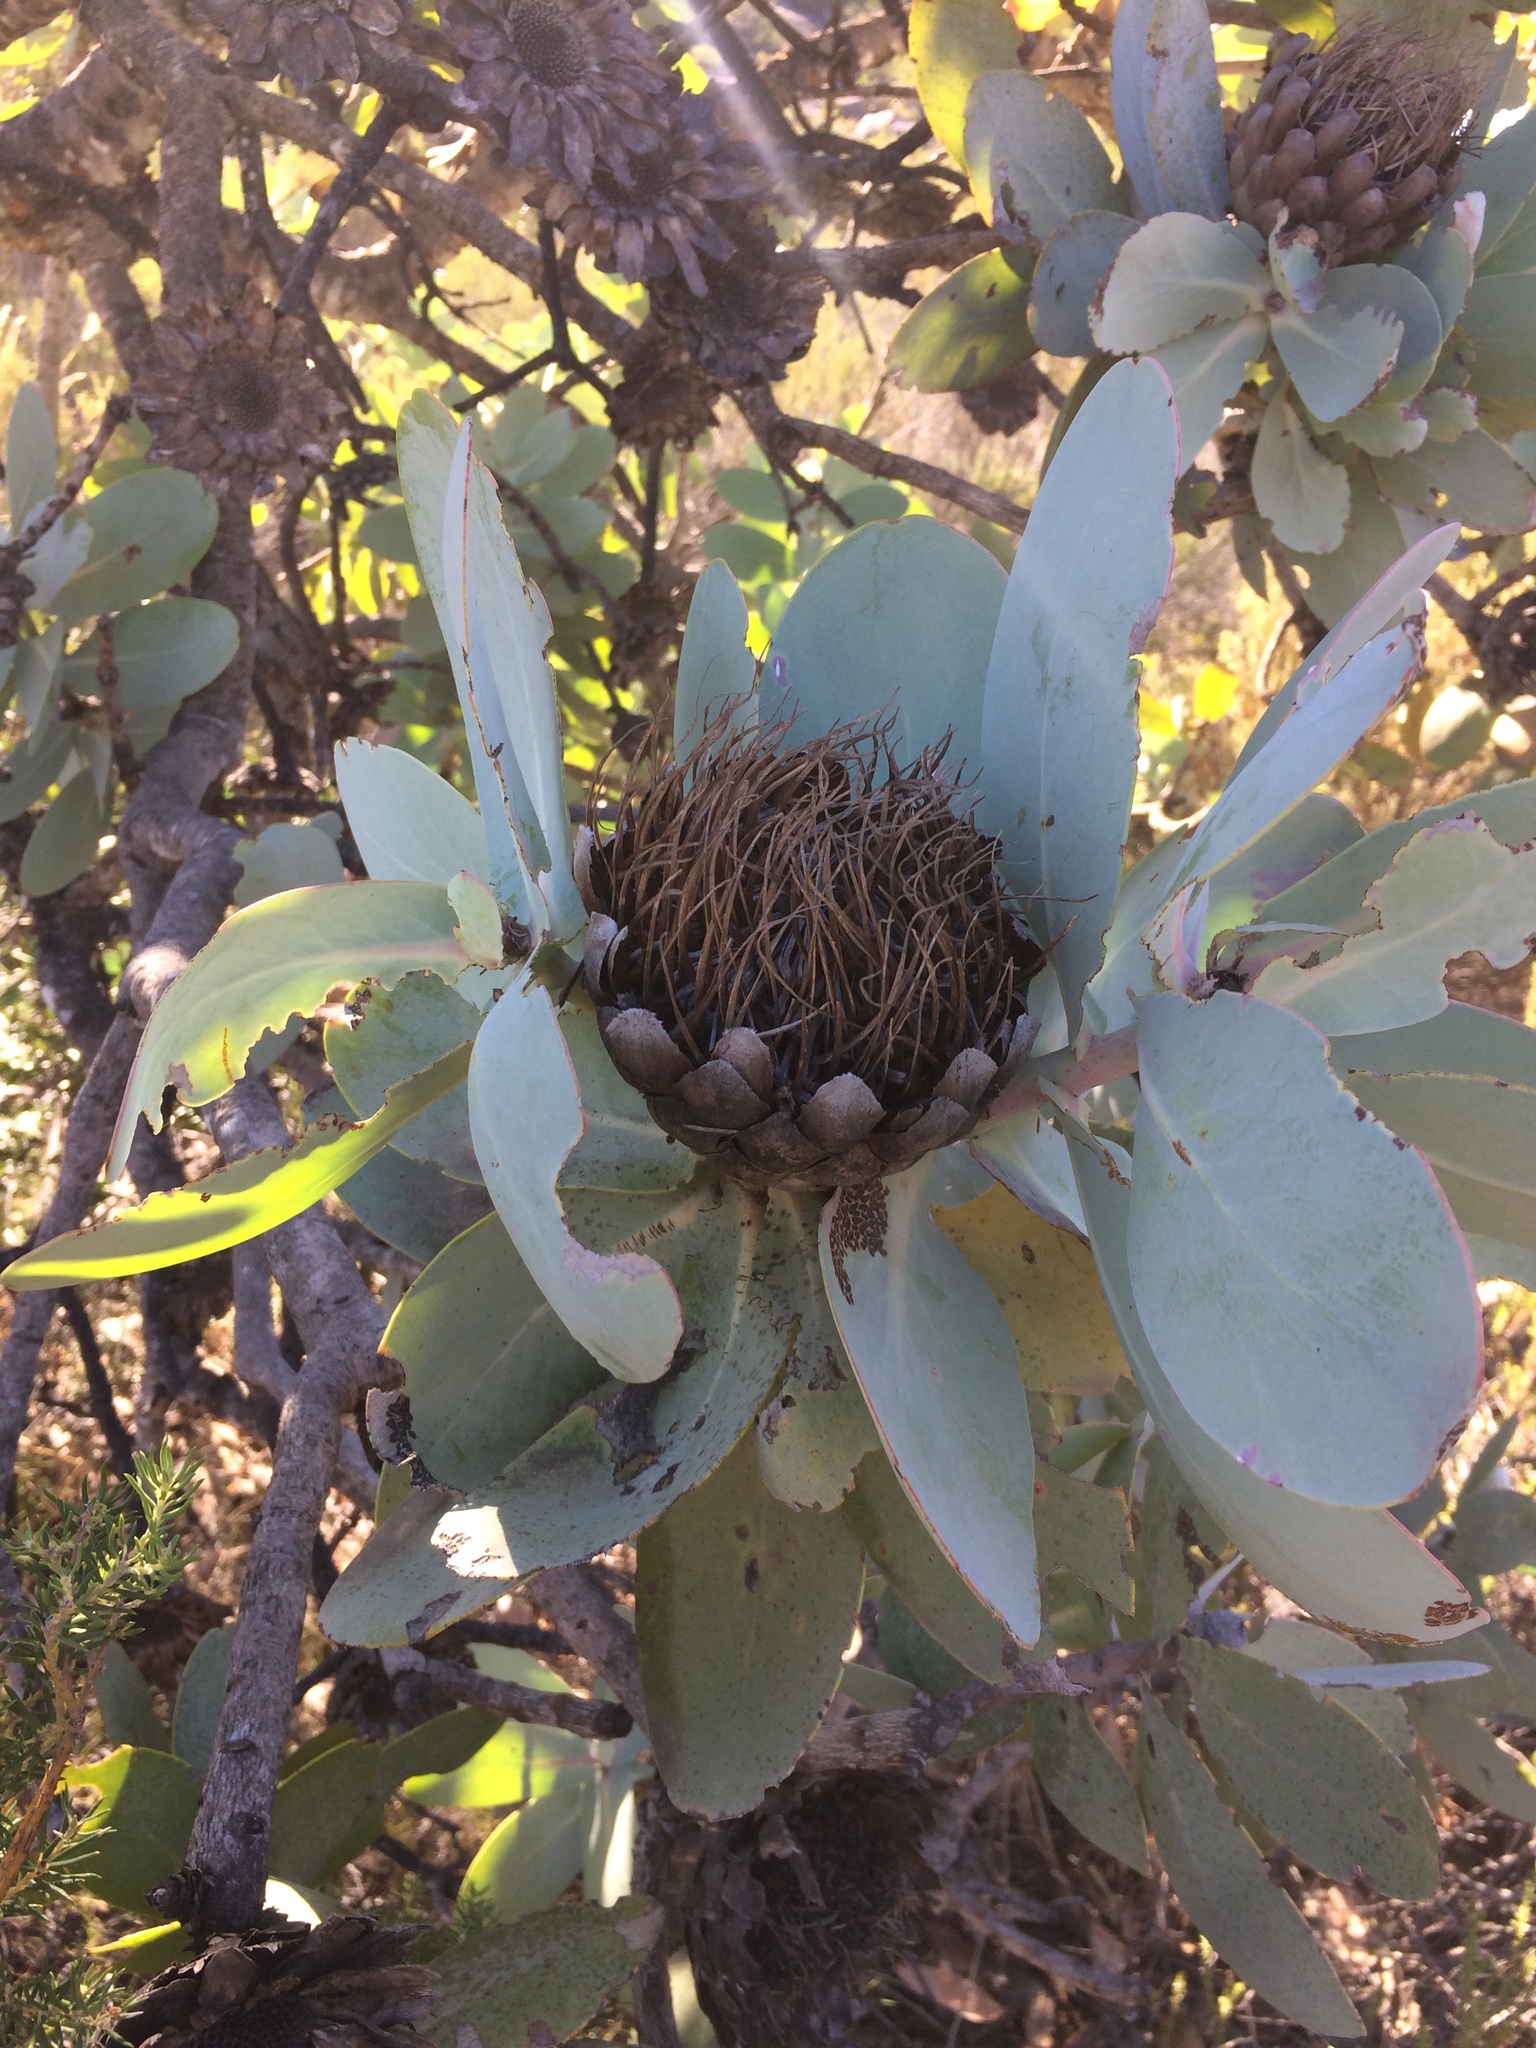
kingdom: Plantae
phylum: Tracheophyta
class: Magnoliopsida
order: Proteales
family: Proteaceae
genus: Protea
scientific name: Protea nitida
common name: Tree protea
